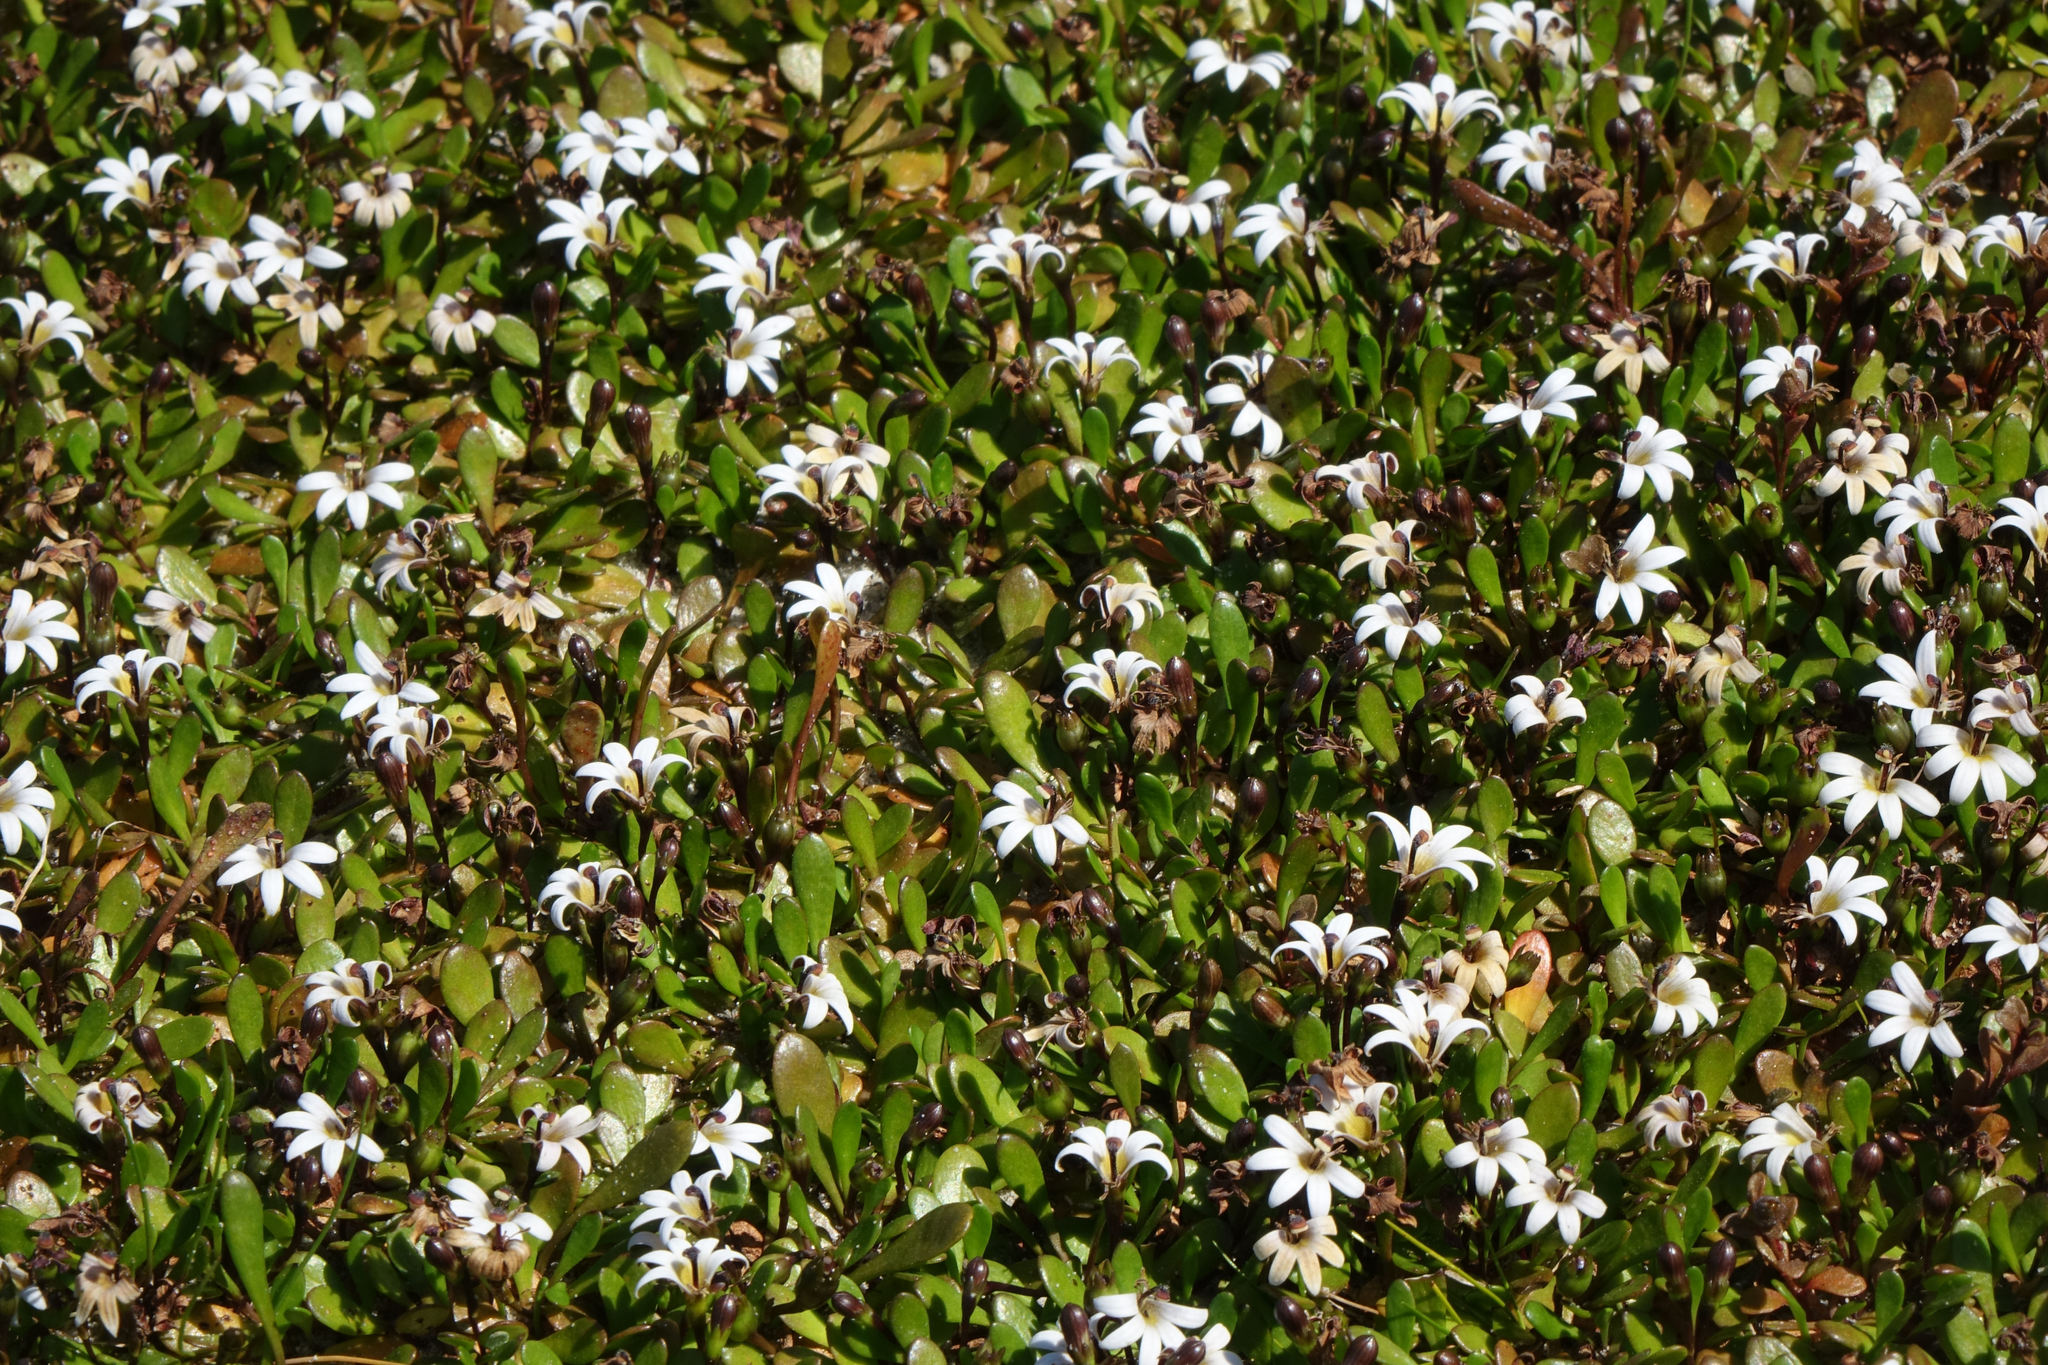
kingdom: Plantae
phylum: Tracheophyta
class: Magnoliopsida
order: Asterales
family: Goodeniaceae
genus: Goodenia
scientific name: Goodenia radicans
